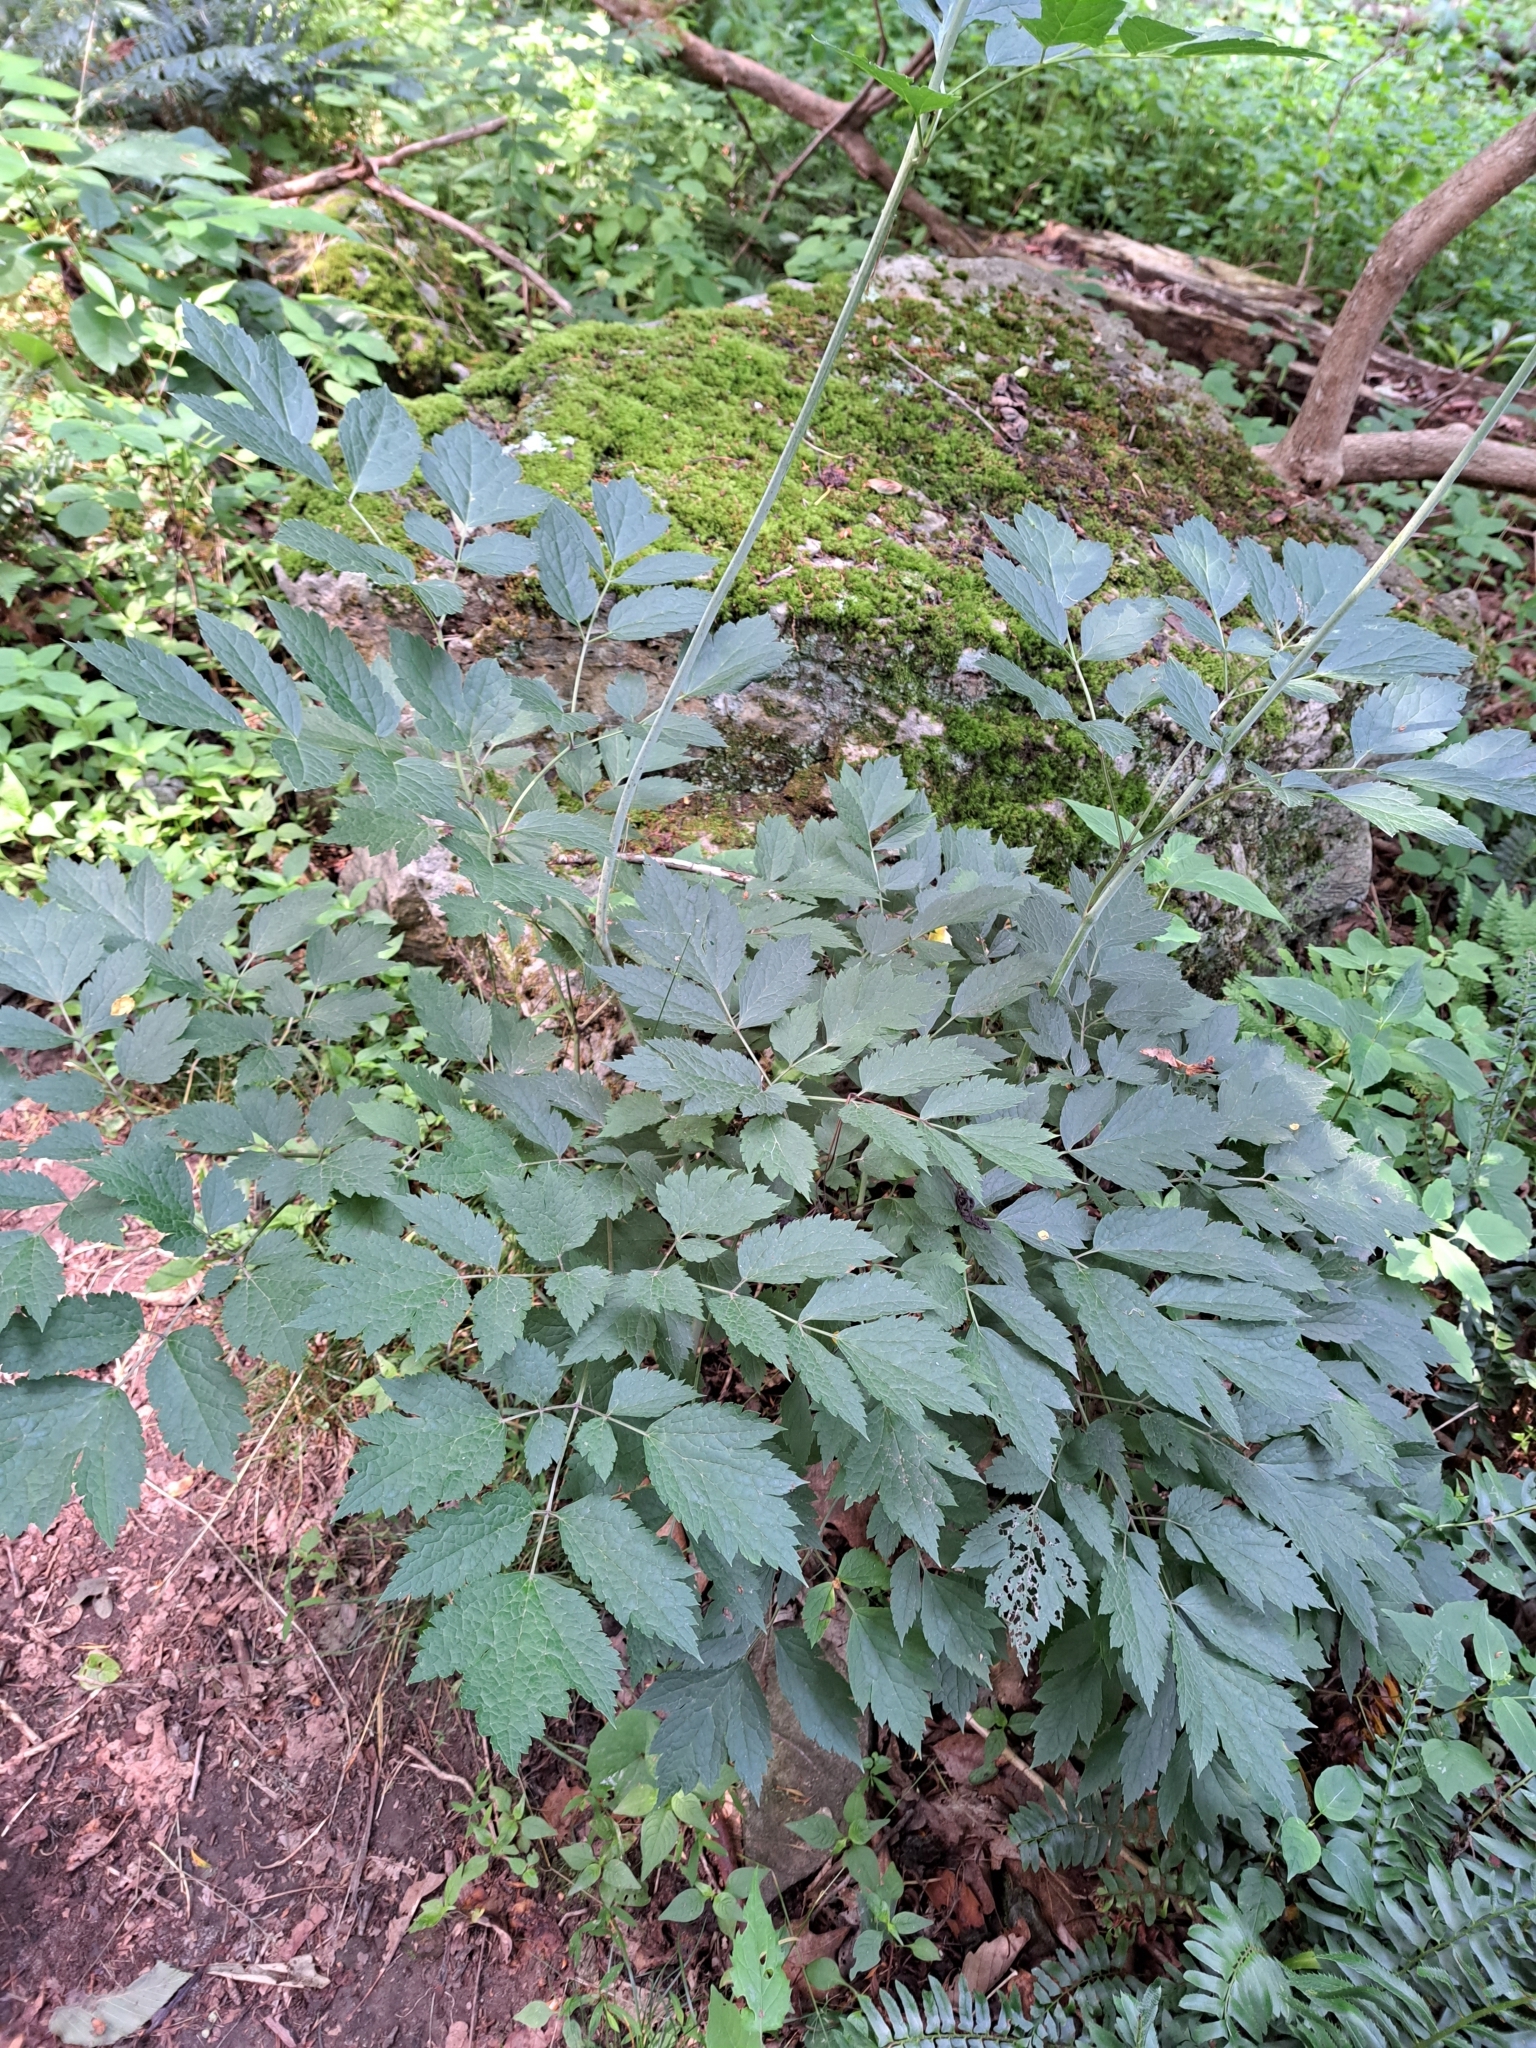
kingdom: Plantae
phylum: Tracheophyta
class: Magnoliopsida
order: Ranunculales
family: Ranunculaceae
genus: Actaea
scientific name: Actaea racemosa
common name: Black cohosh
